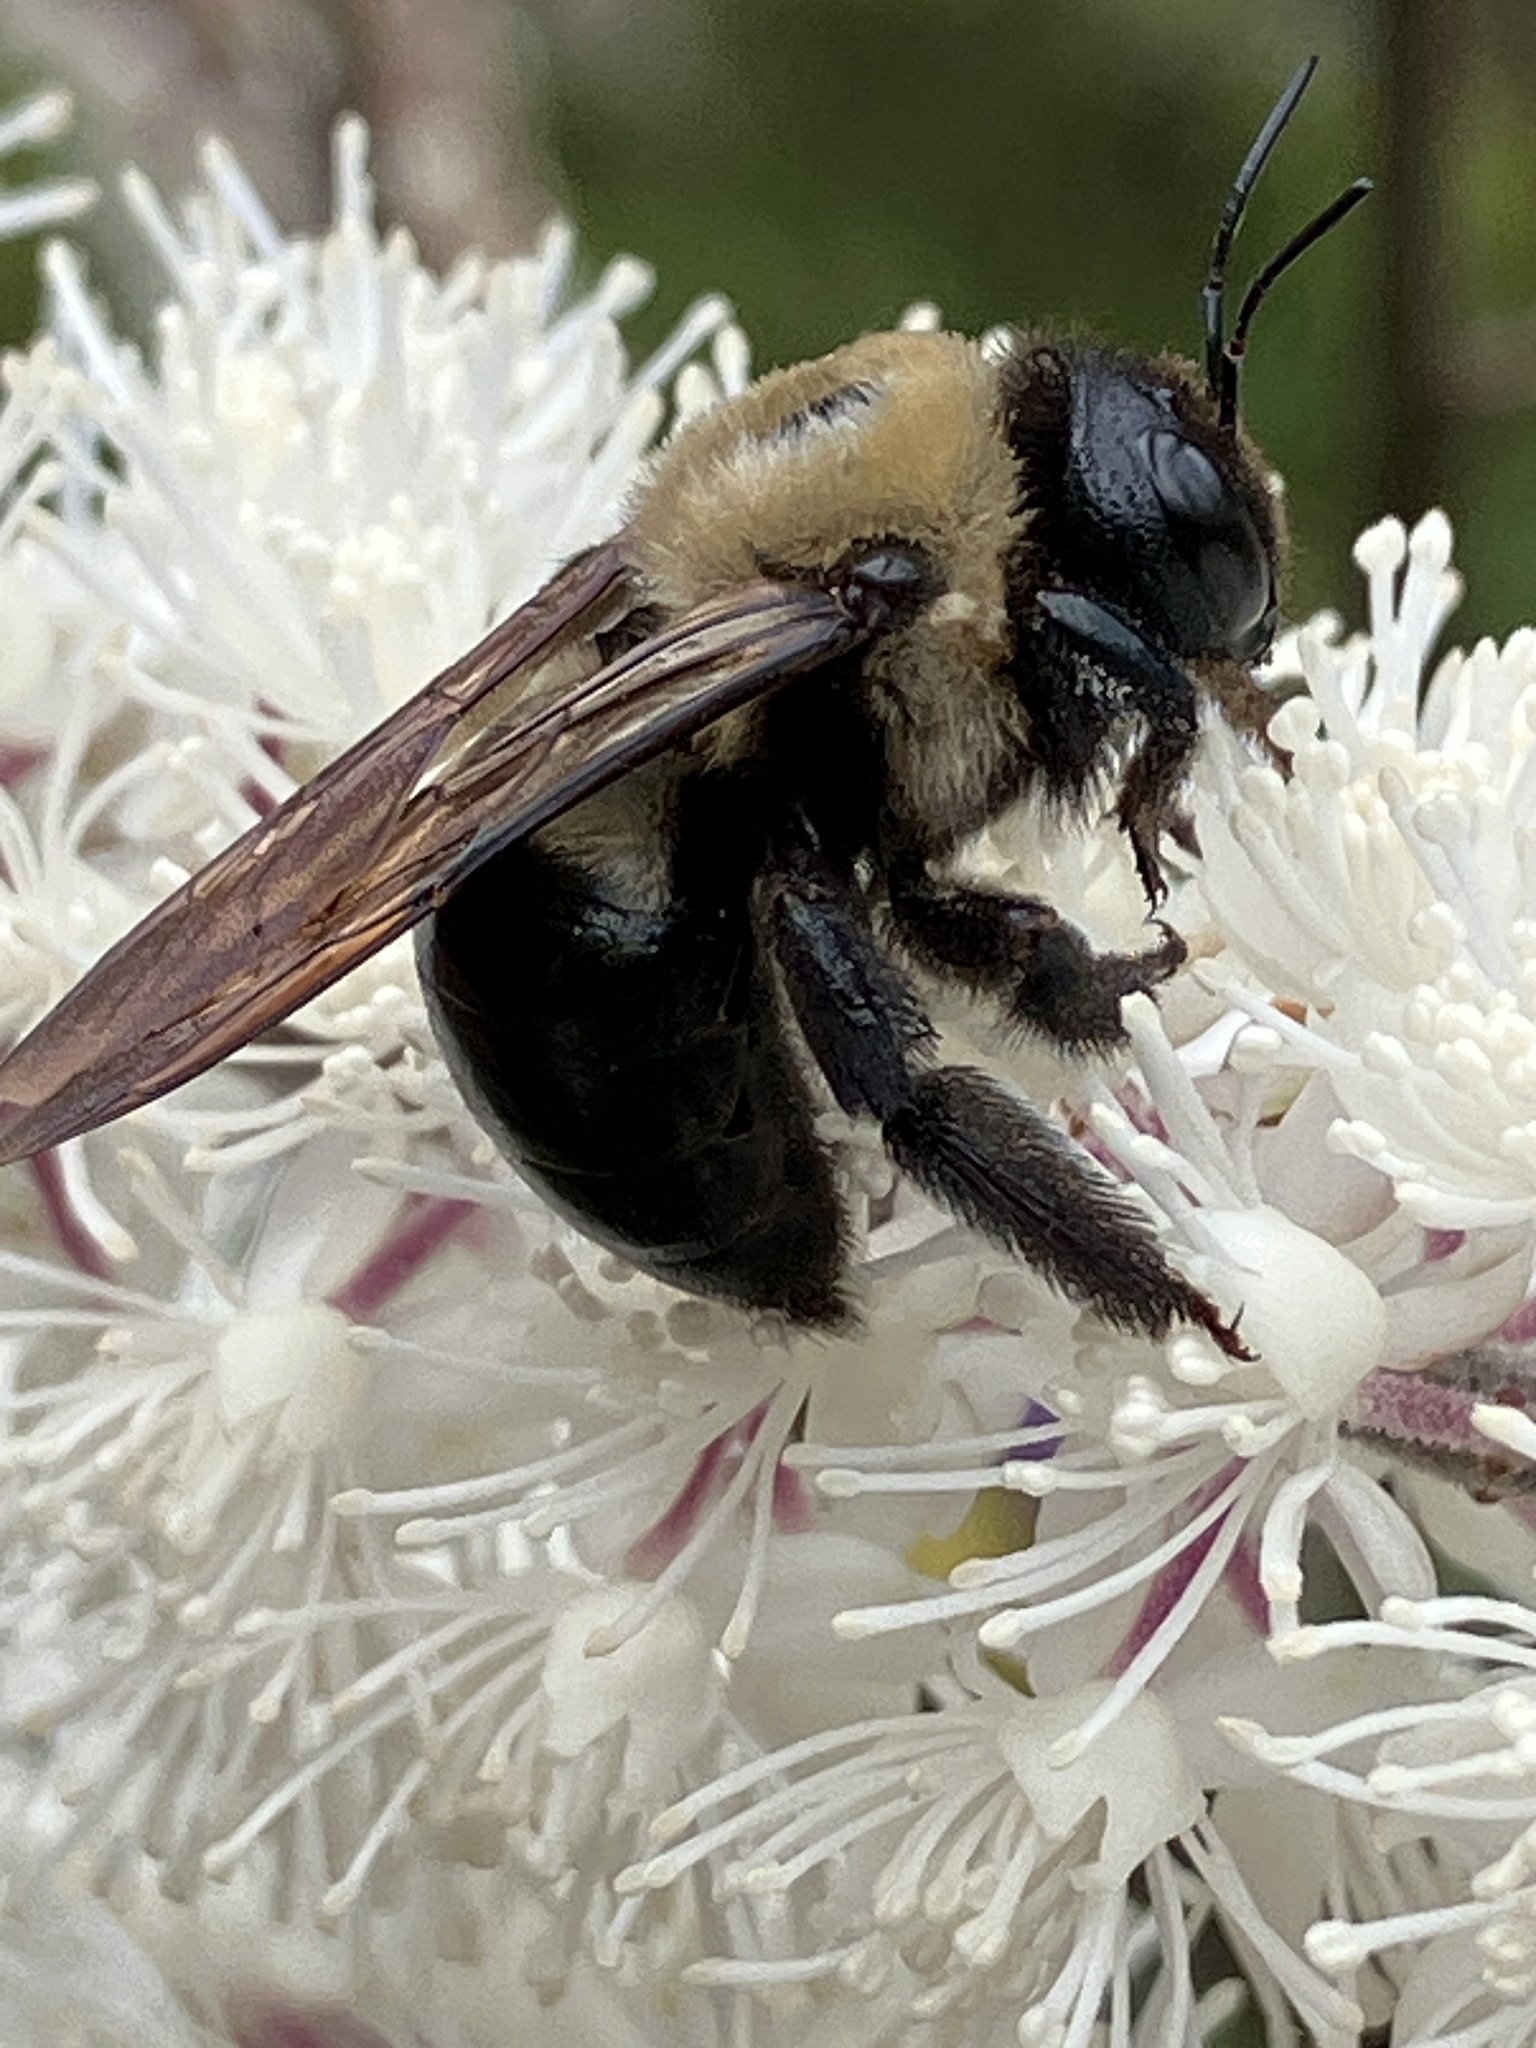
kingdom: Animalia
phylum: Arthropoda
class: Insecta
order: Hymenoptera
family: Apidae
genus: Xylocopa
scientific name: Xylocopa virginica
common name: Carpenter bee
